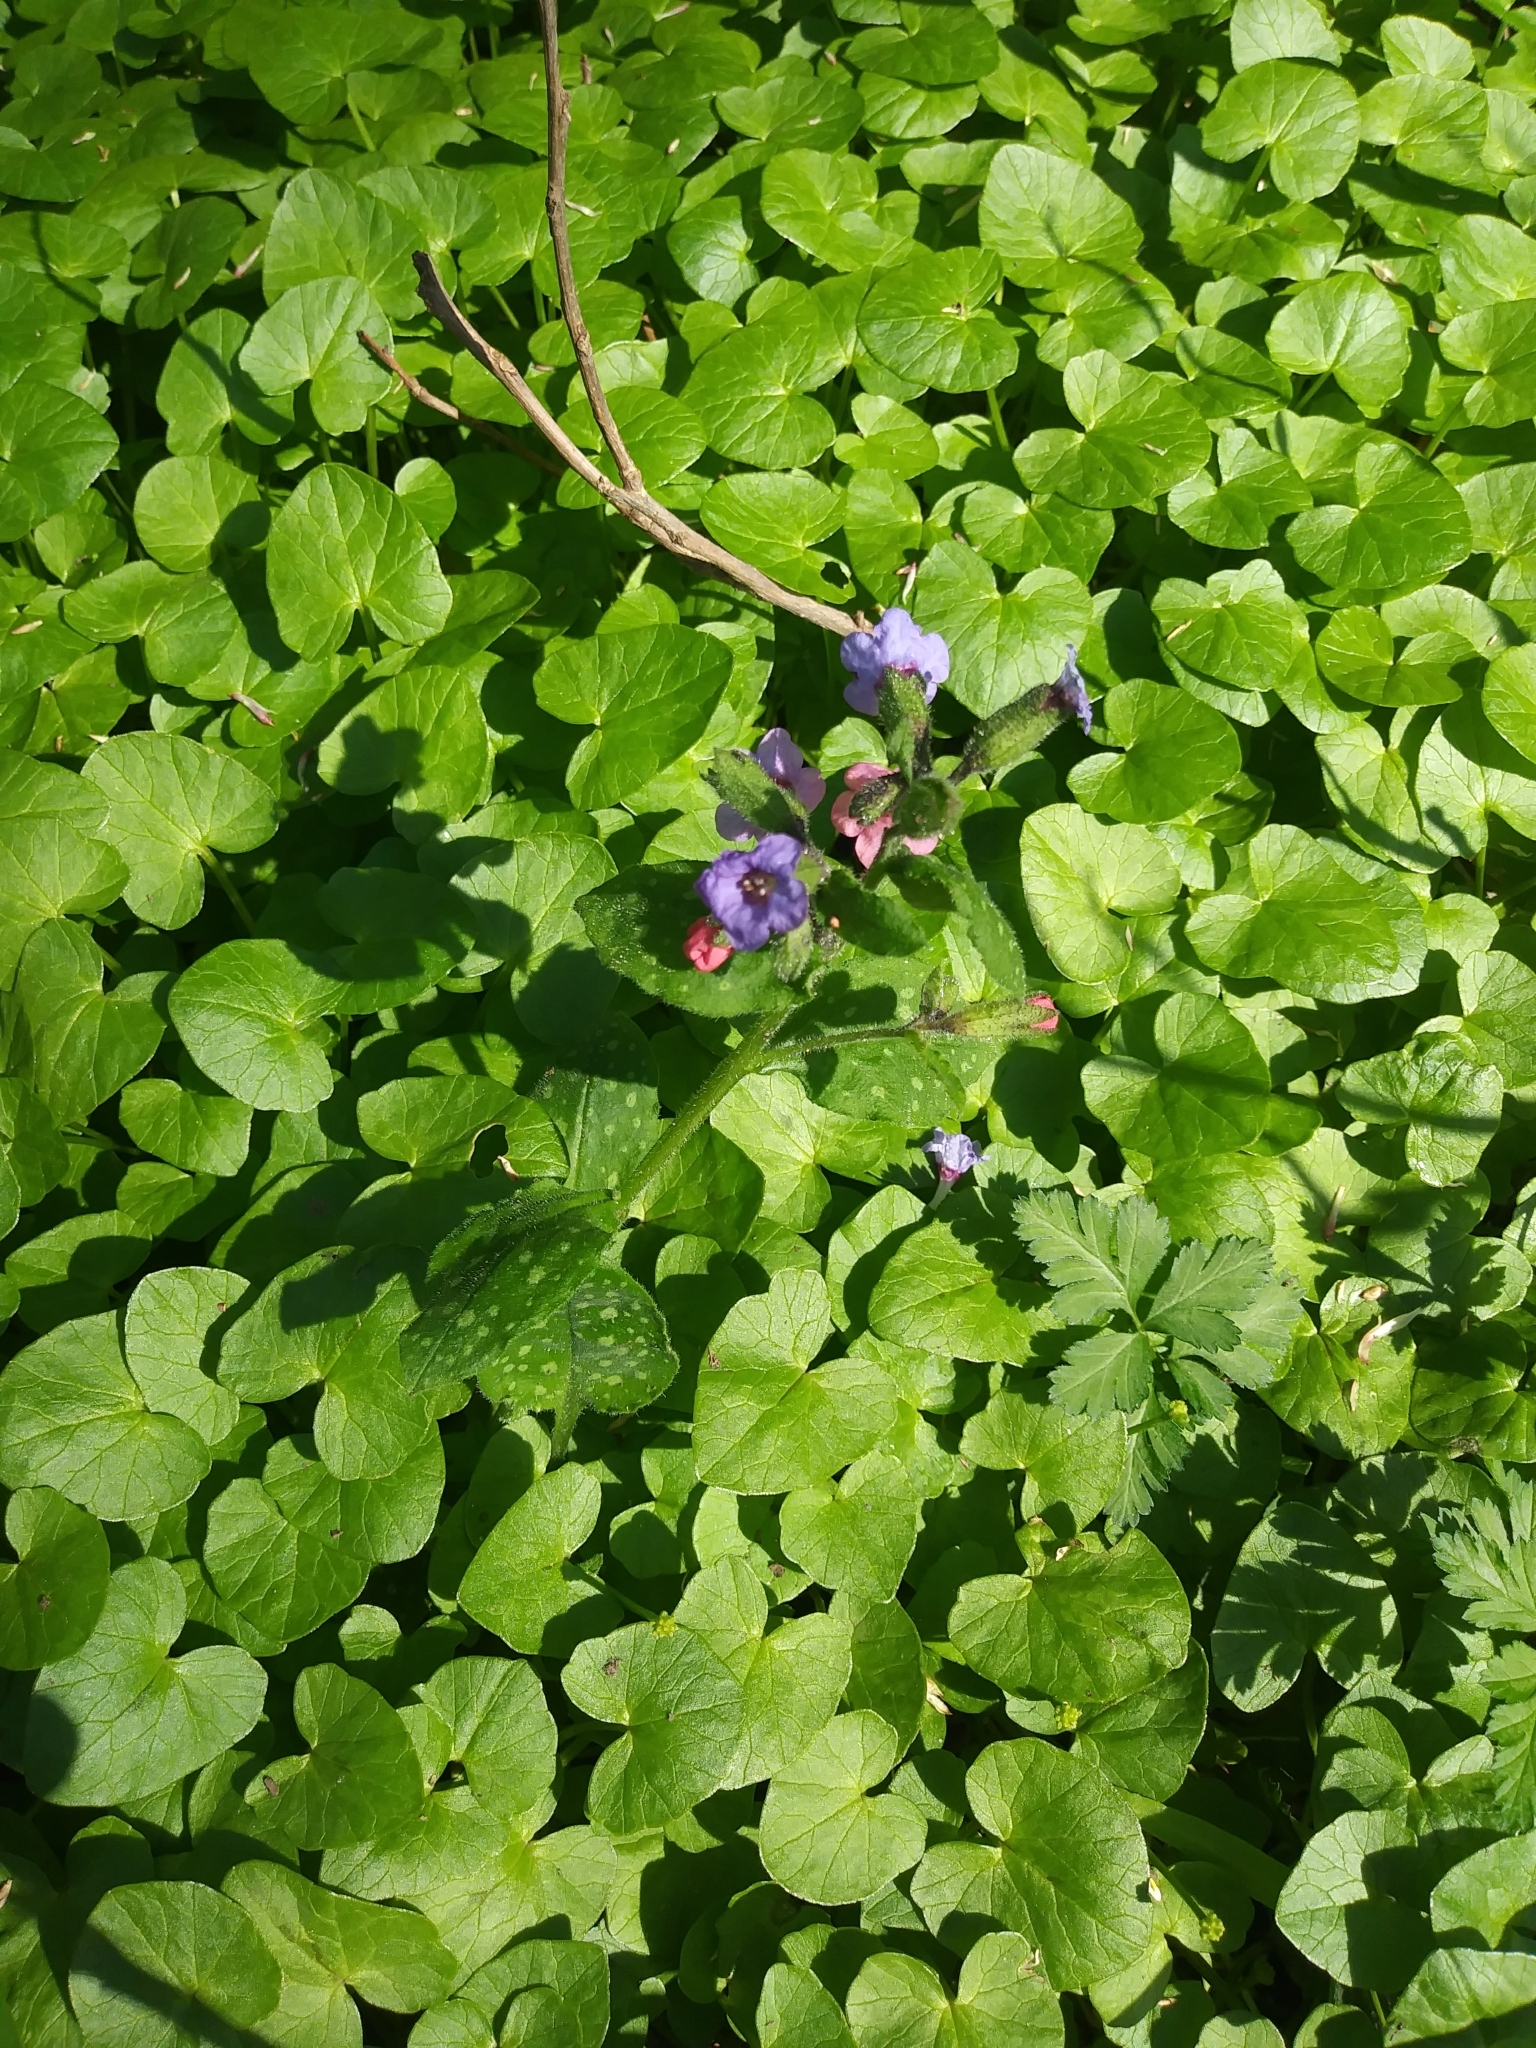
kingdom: Plantae
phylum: Tracheophyta
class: Magnoliopsida
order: Boraginales
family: Boraginaceae
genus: Pulmonaria
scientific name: Pulmonaria officinalis
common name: Lungwort
